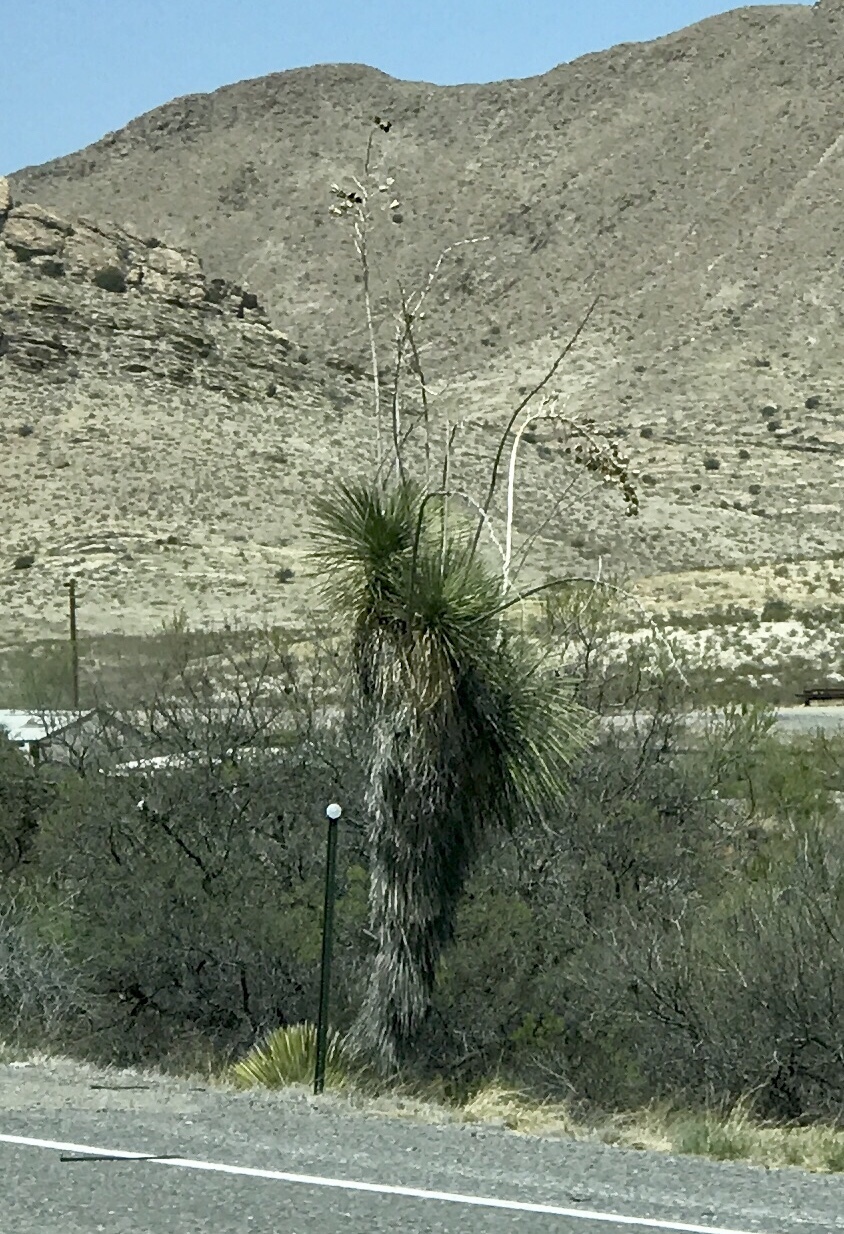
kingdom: Plantae
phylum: Tracheophyta
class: Liliopsida
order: Asparagales
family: Asparagaceae
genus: Yucca
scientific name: Yucca elata
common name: Palmella
